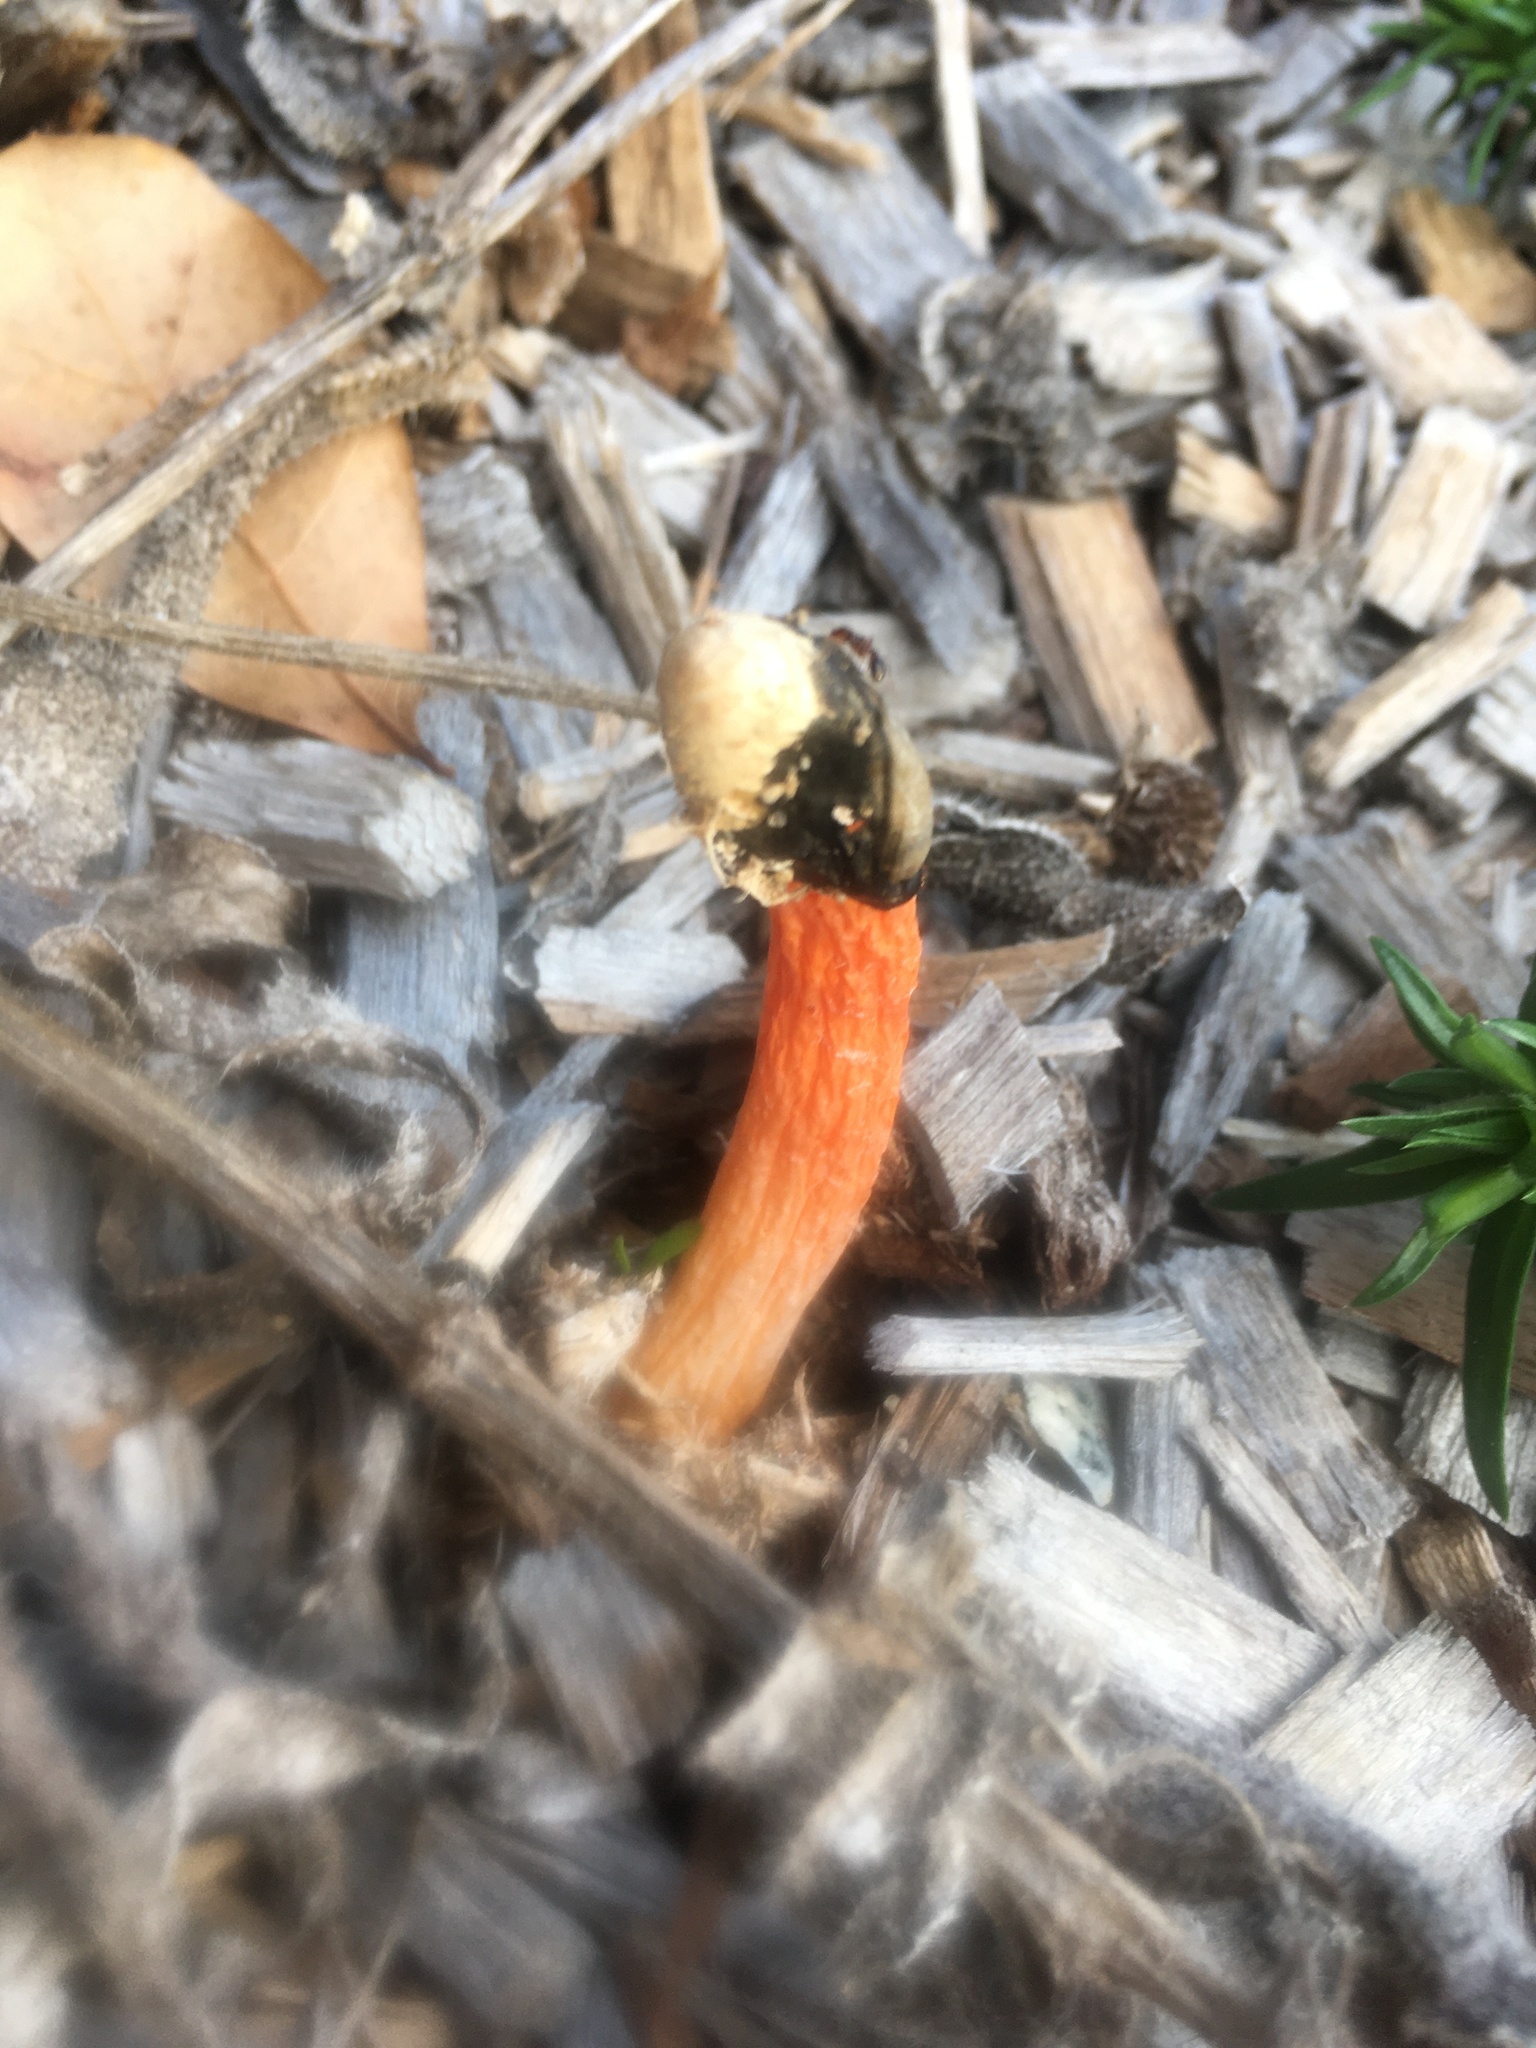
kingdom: Fungi
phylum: Basidiomycota
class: Agaricomycetes
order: Phallales
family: Phallaceae
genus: Phallus
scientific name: Phallus rugulosus
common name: Wrinkly stinkhorn
